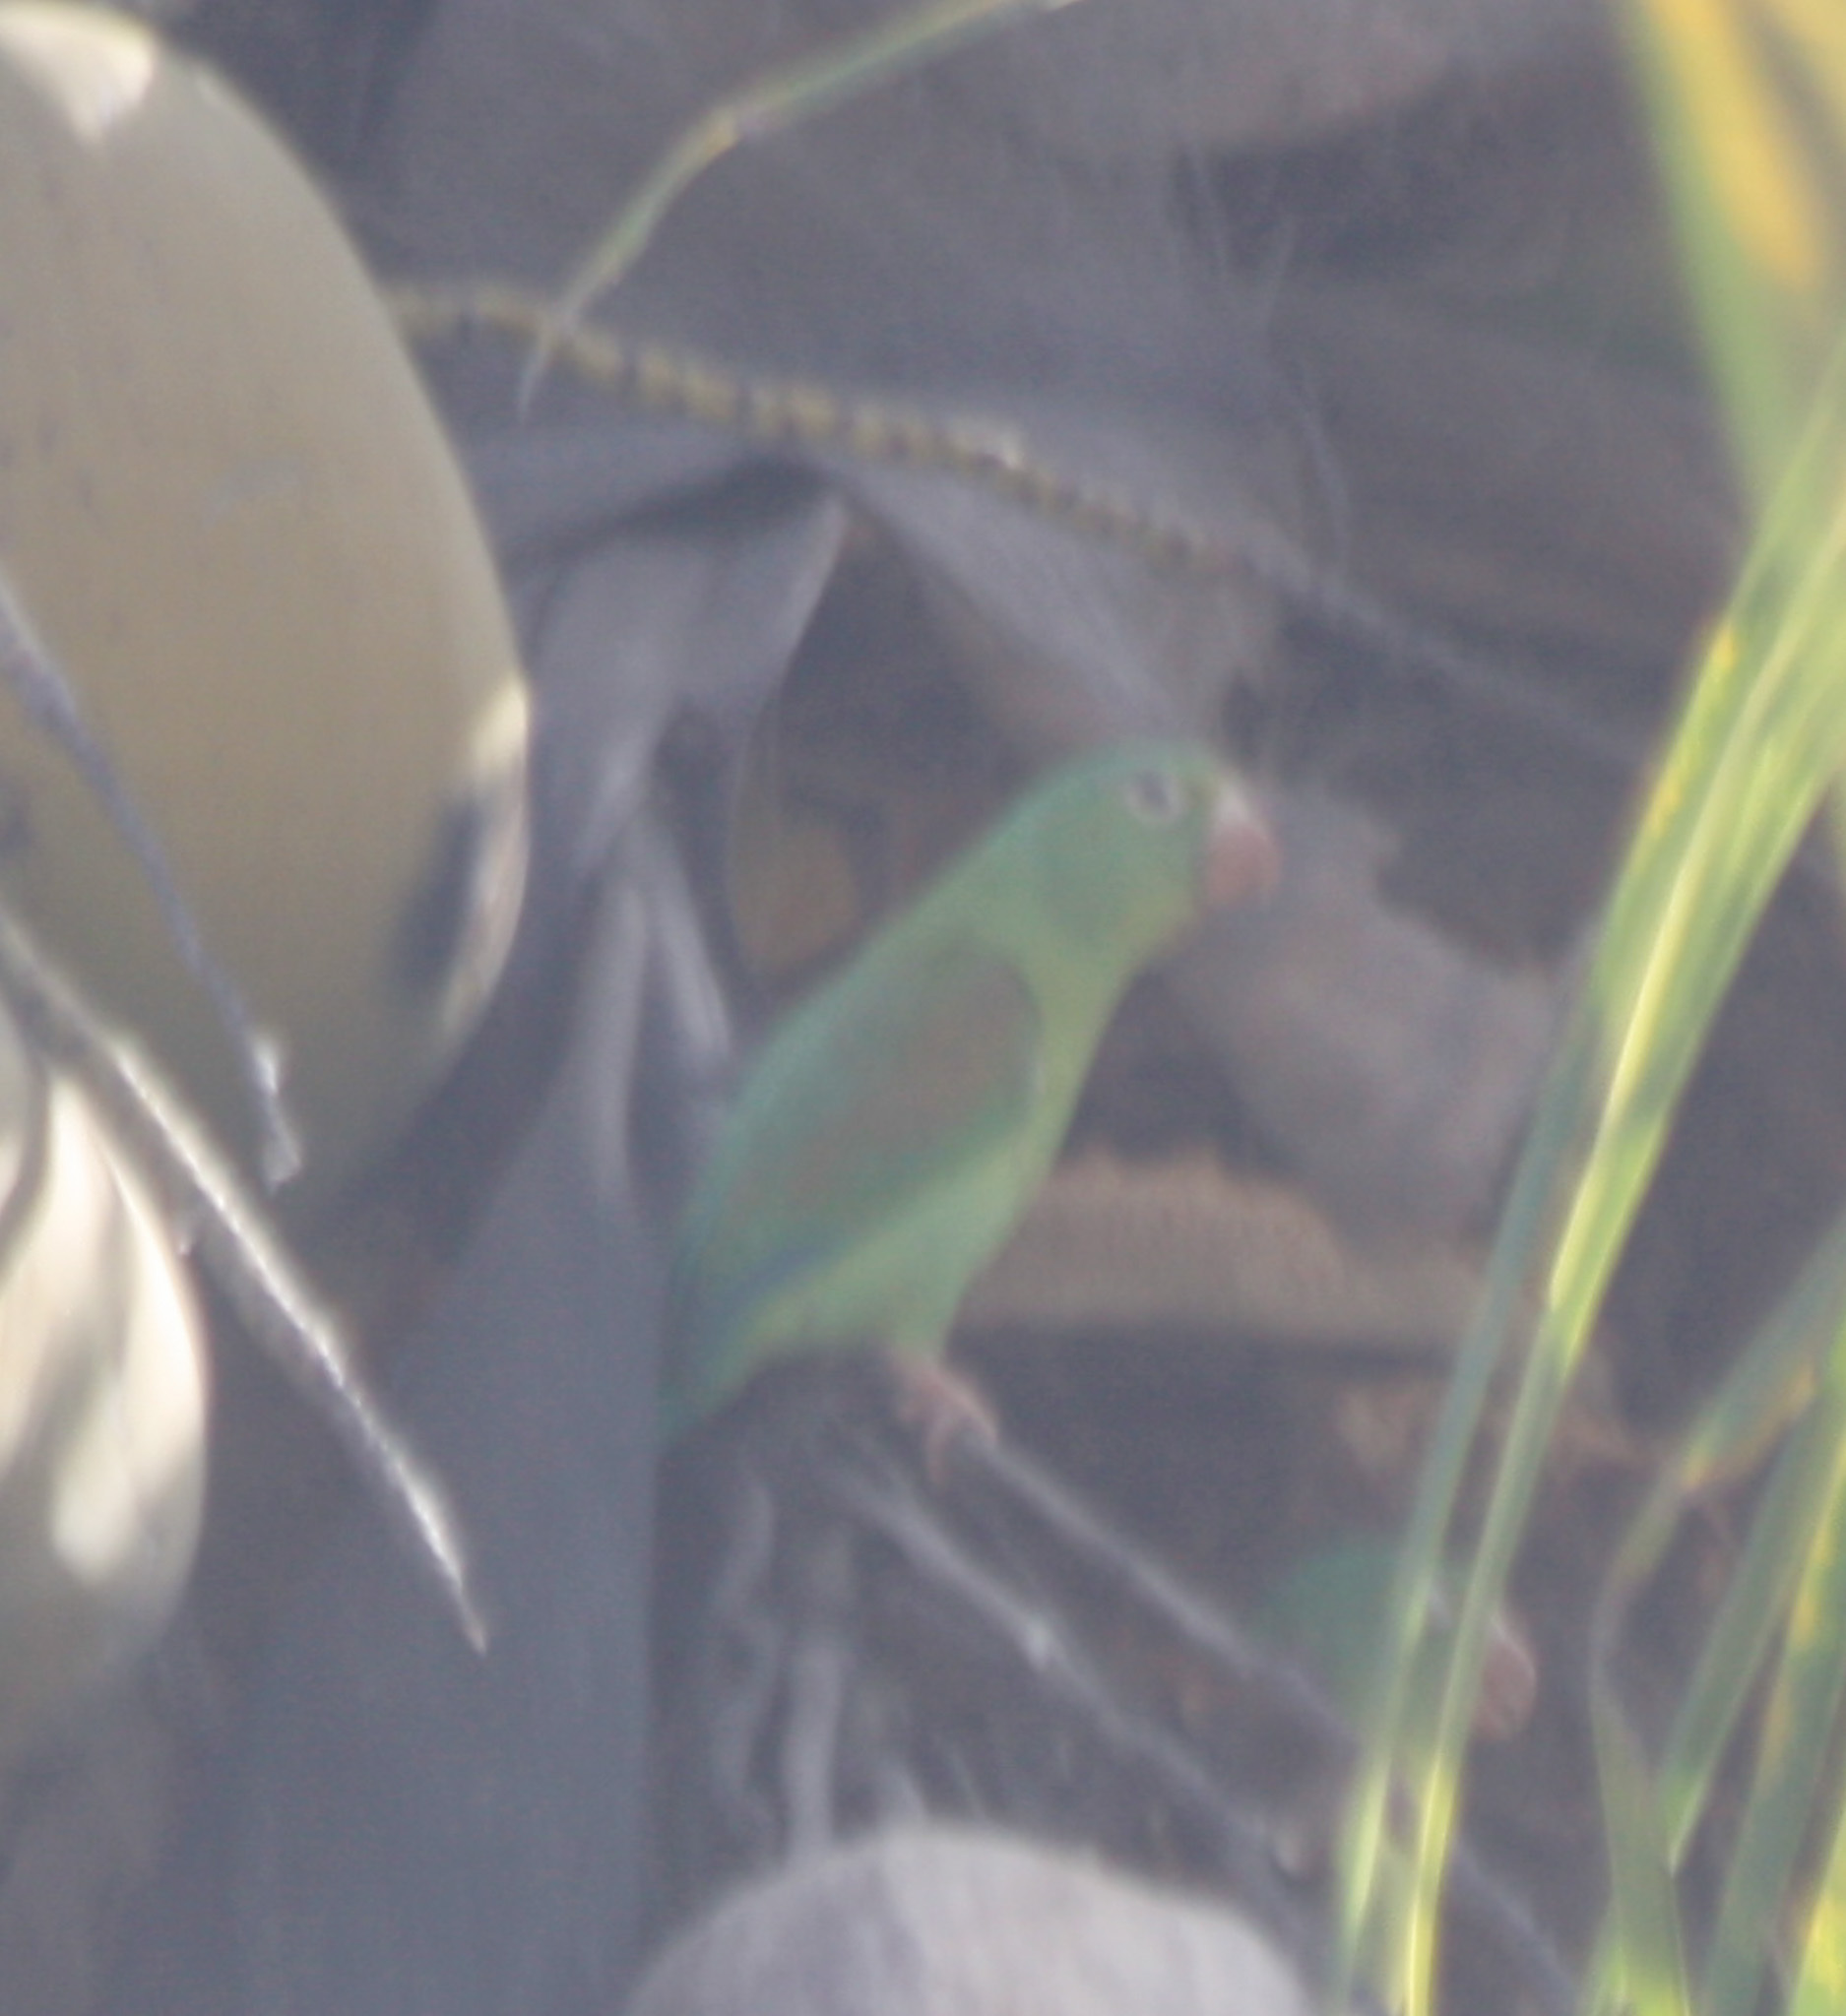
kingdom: Animalia
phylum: Chordata
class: Aves
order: Psittaciformes
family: Psittacidae
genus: Brotogeris
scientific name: Brotogeris jugularis
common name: Orange-chinned parakeet
